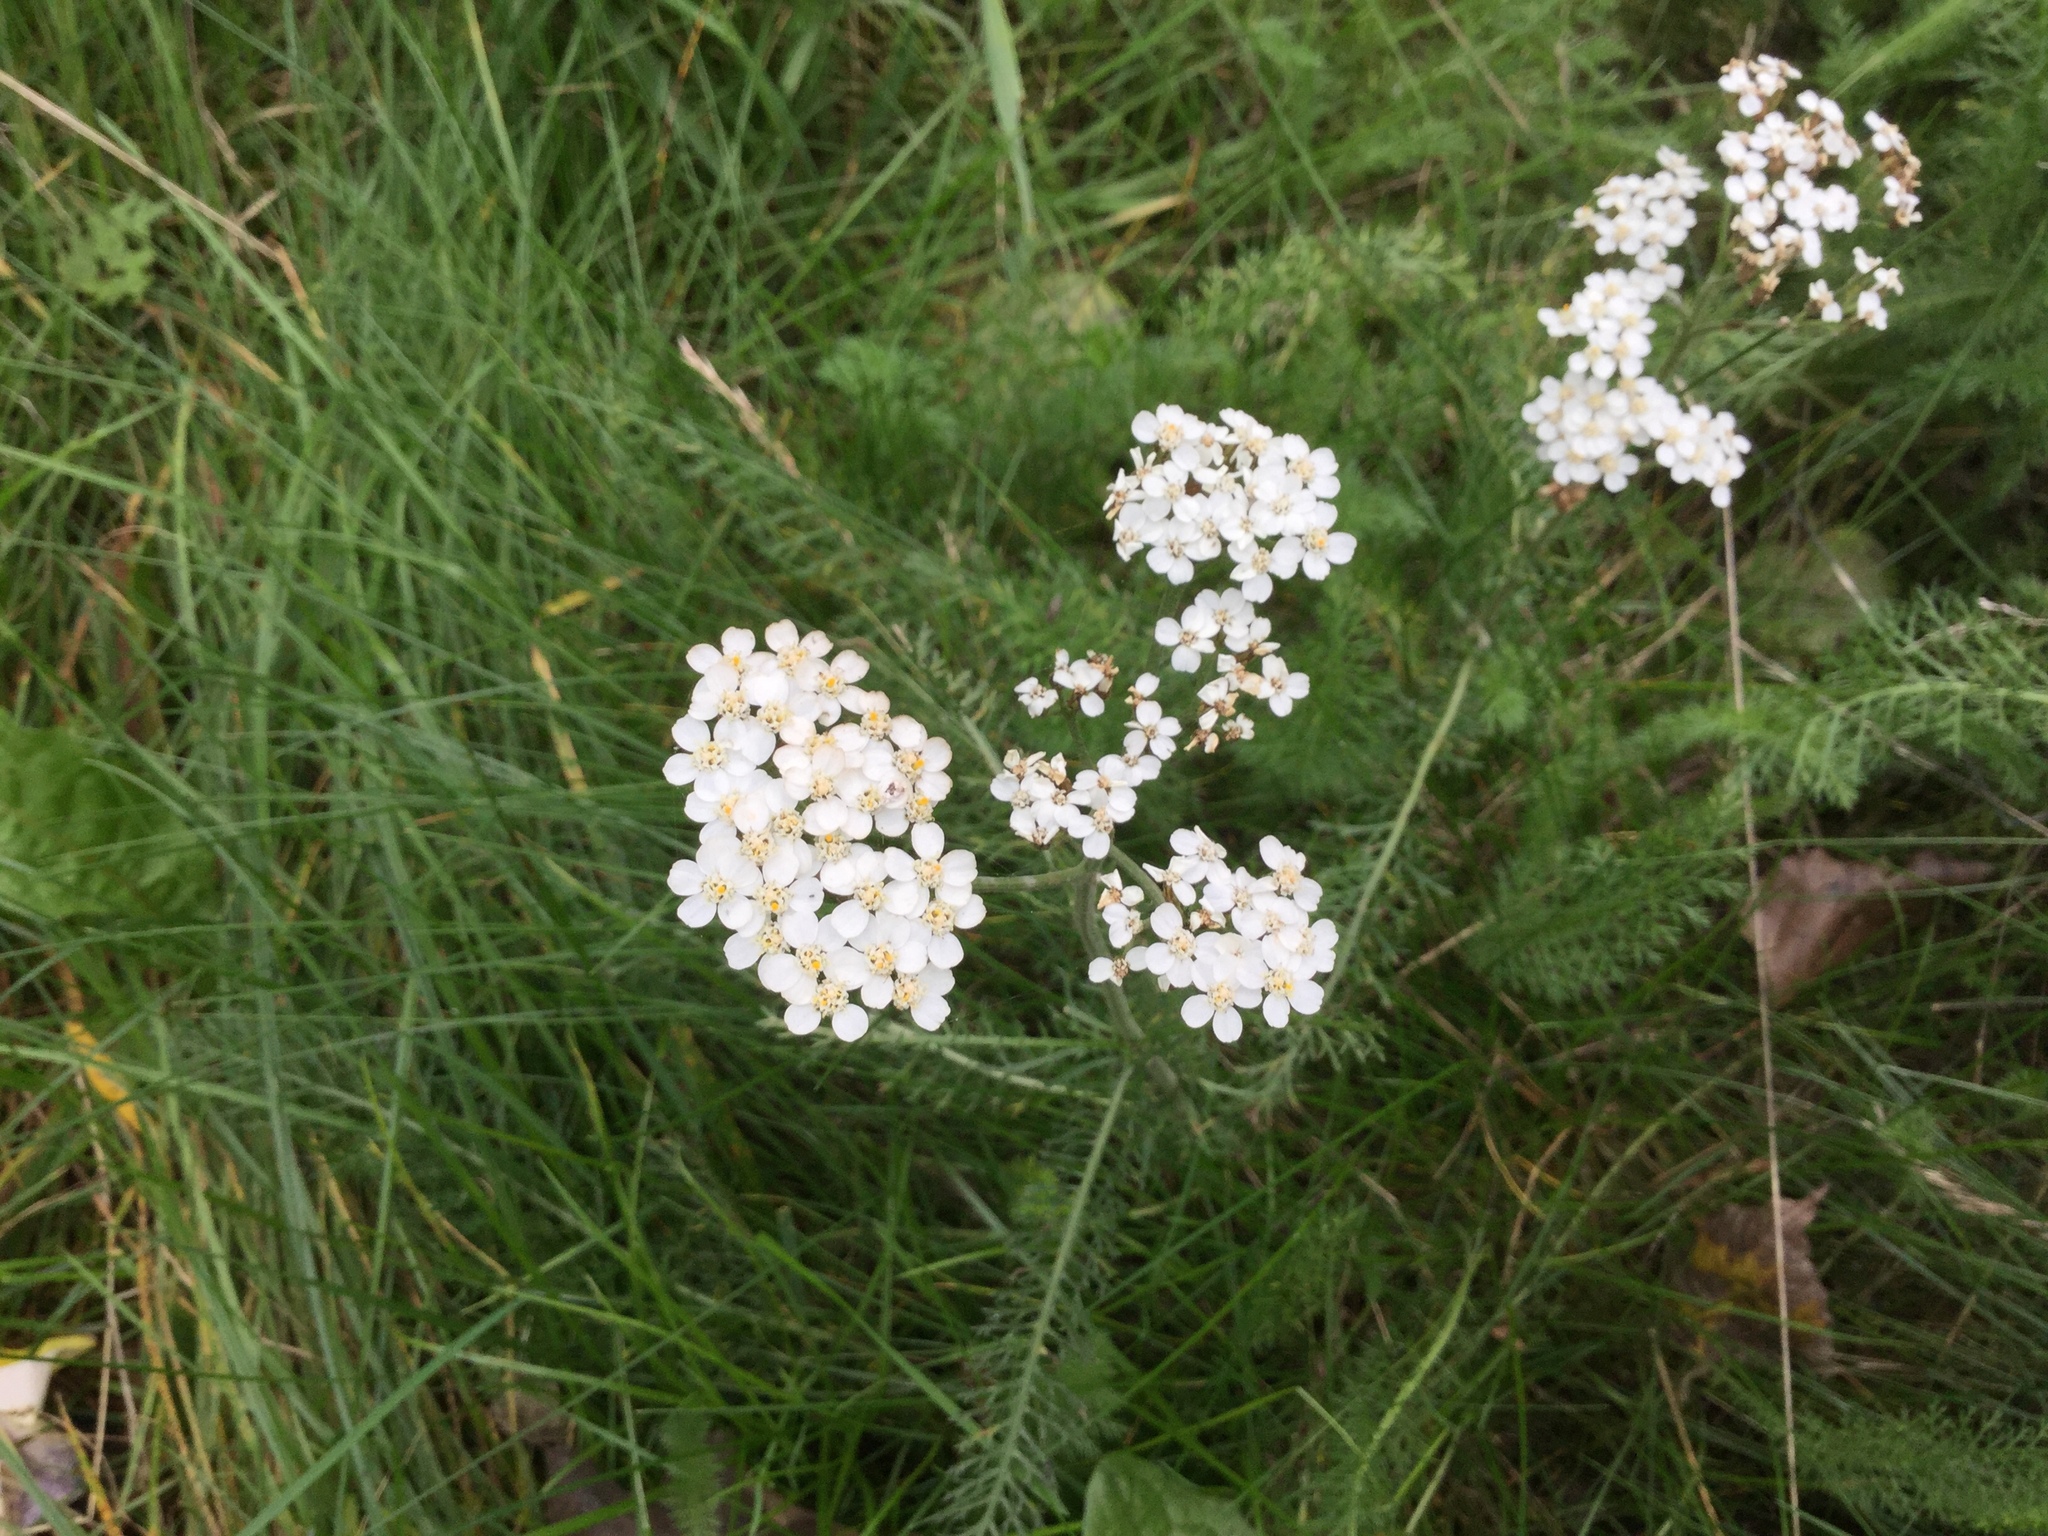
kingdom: Plantae
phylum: Tracheophyta
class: Magnoliopsida
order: Asterales
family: Asteraceae
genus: Achillea
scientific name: Achillea millefolium
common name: Yarrow
